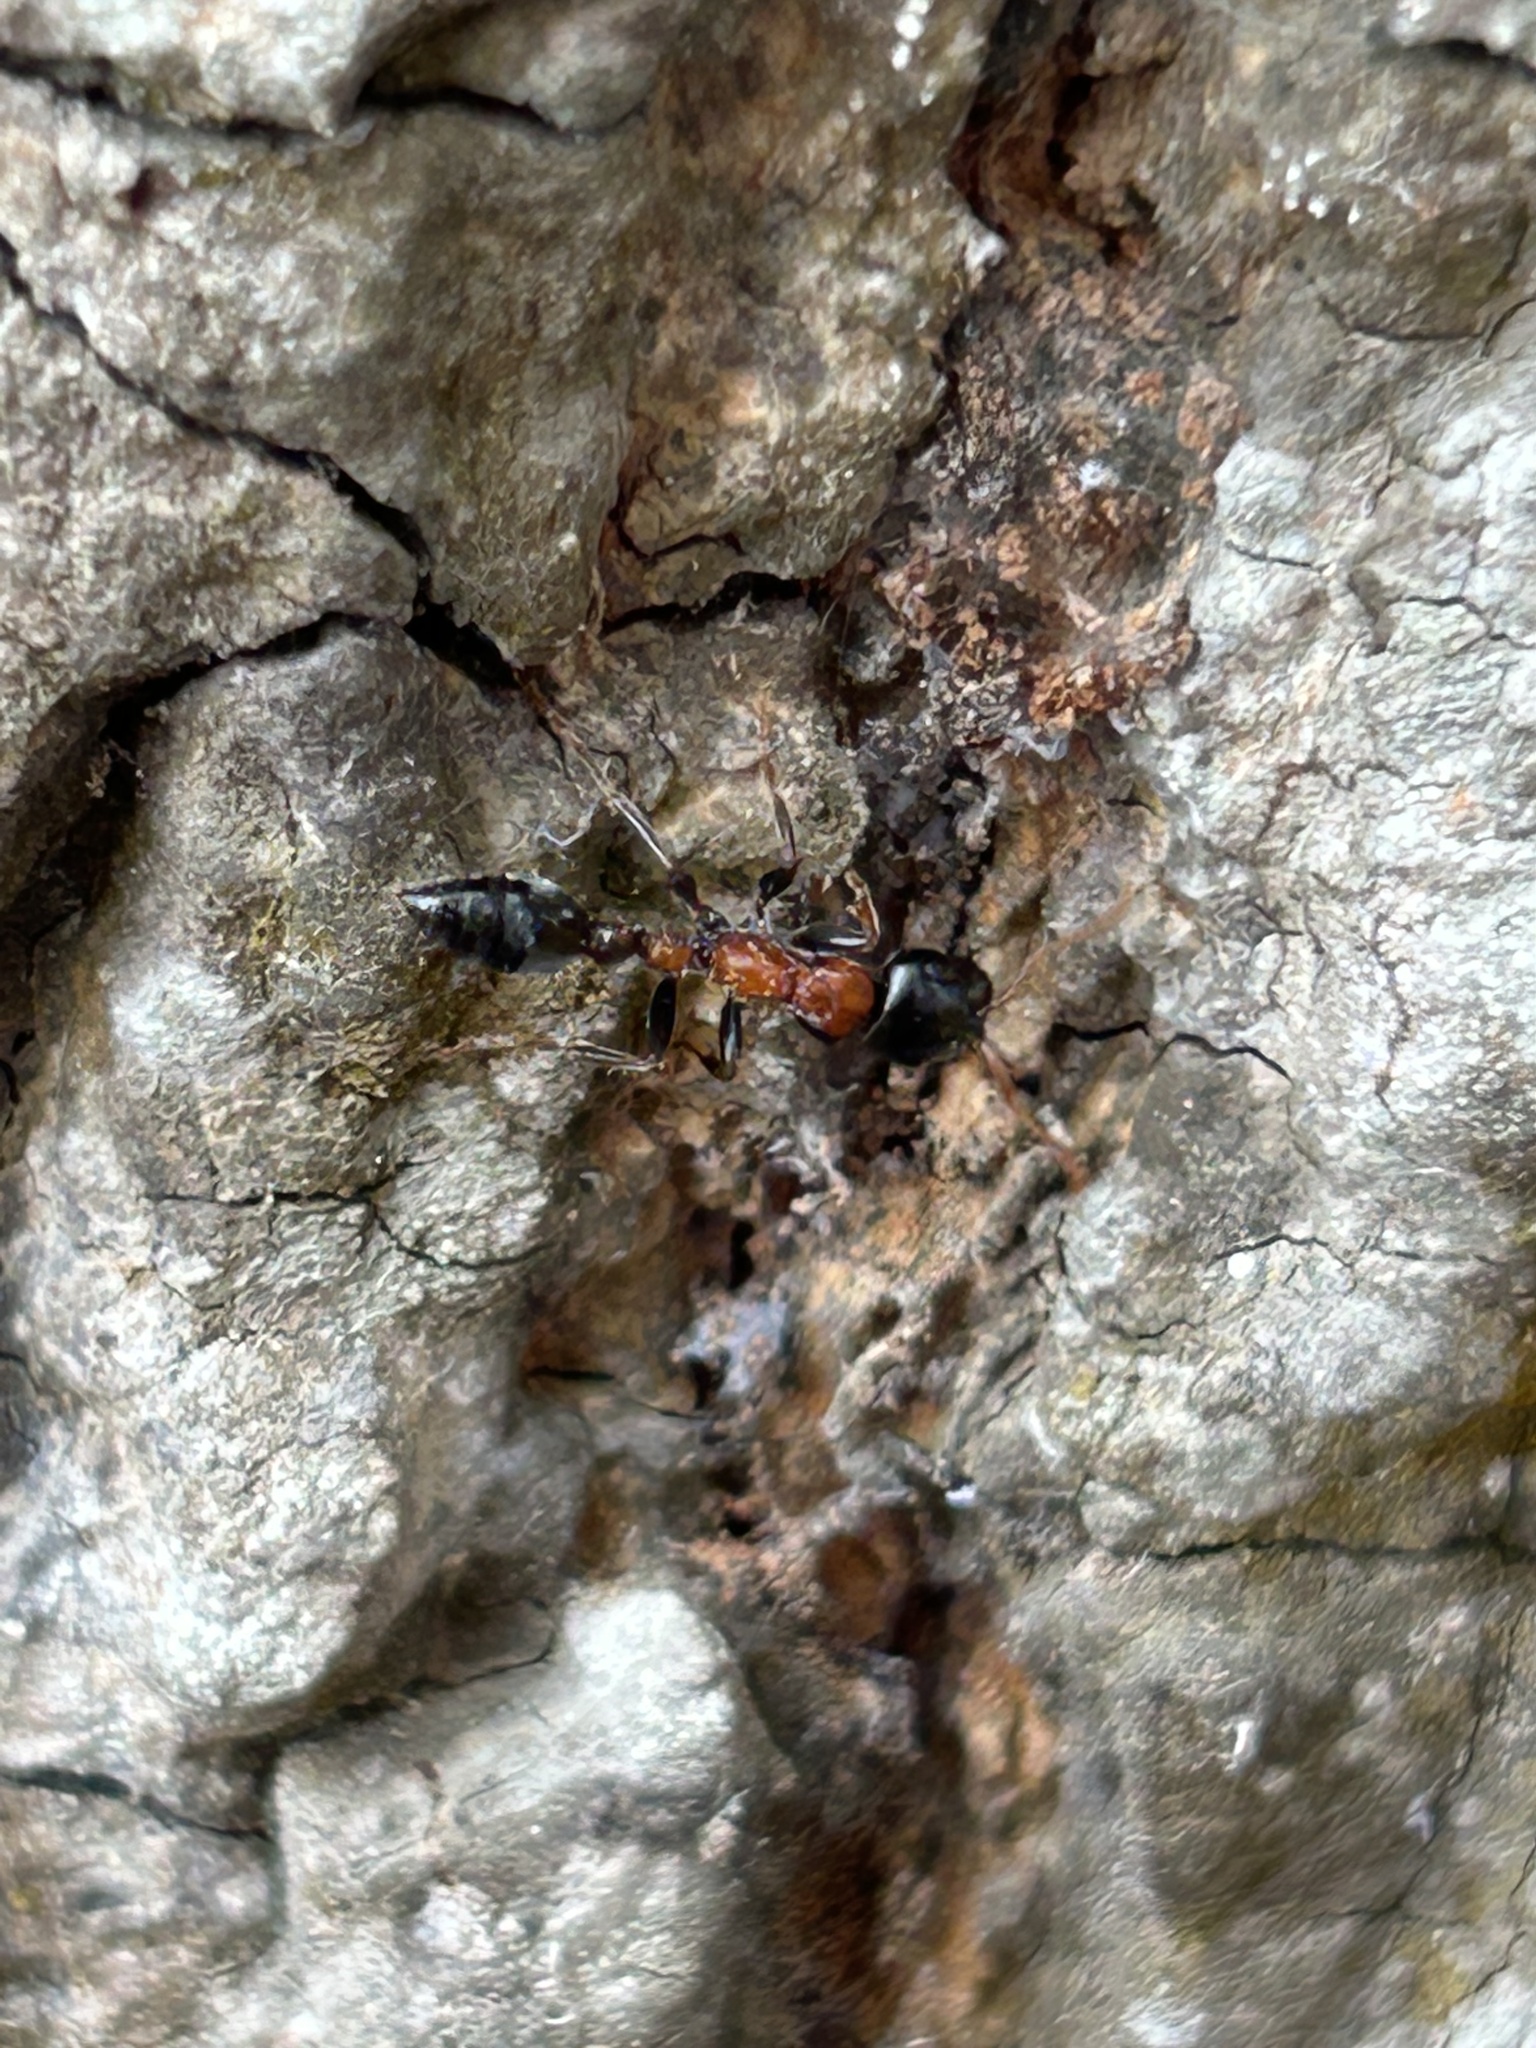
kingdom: Animalia
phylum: Arthropoda
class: Insecta
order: Hymenoptera
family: Formicidae
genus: Tetraponera
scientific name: Tetraponera rufonigra
